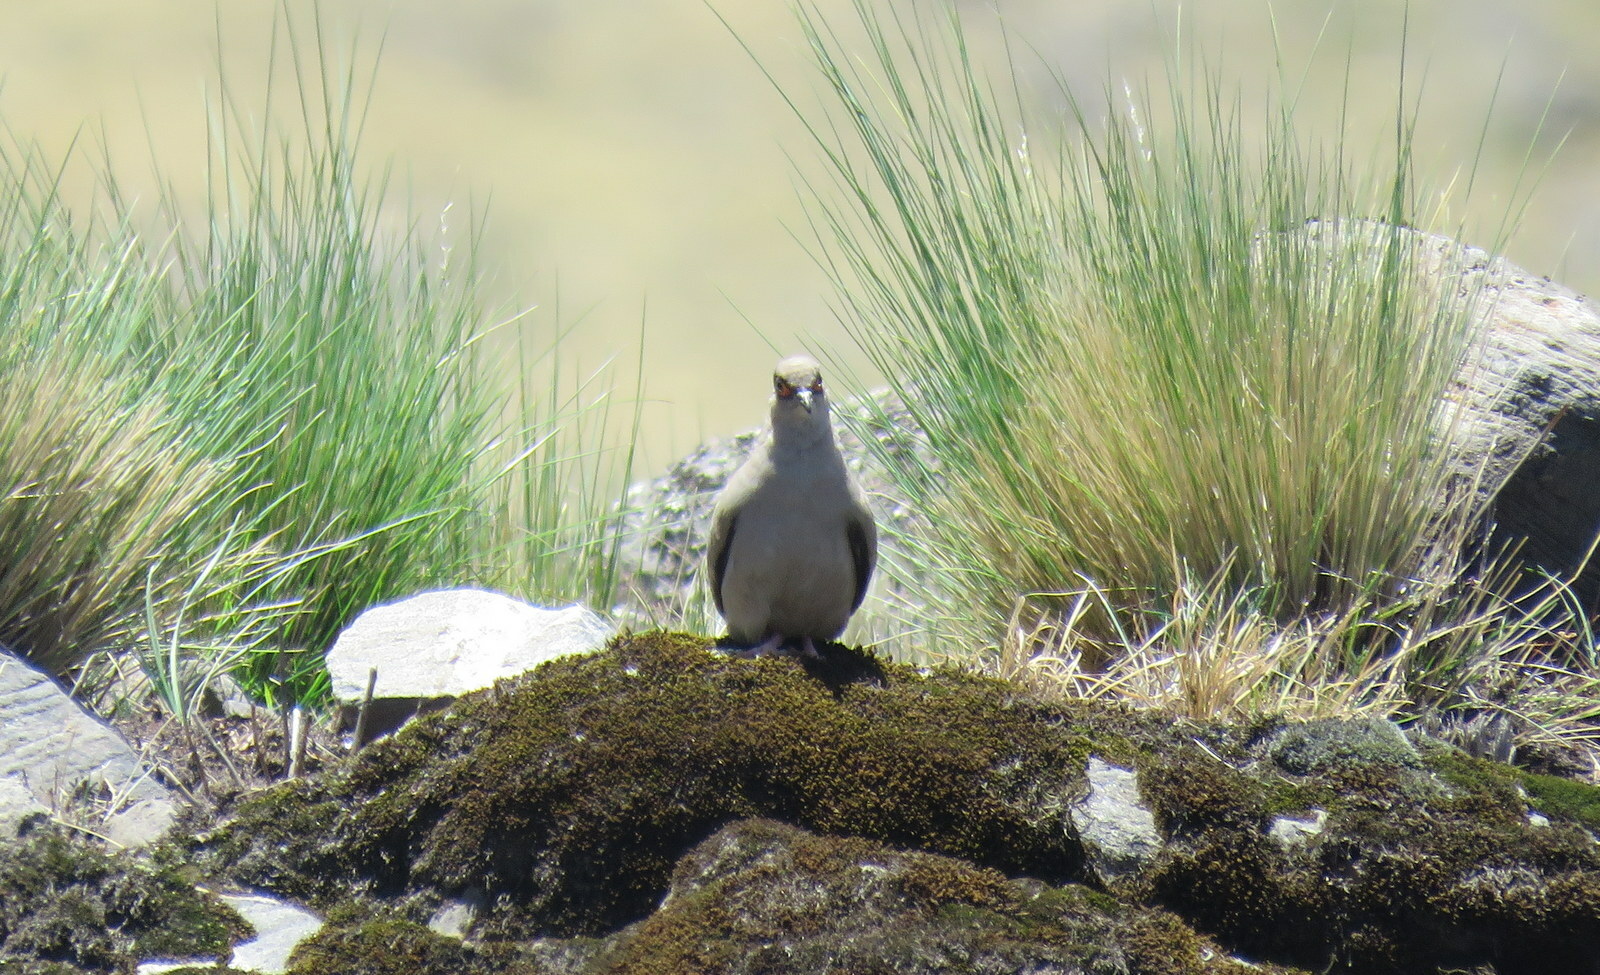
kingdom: Animalia
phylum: Chordata
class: Aves
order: Columbiformes
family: Columbidae
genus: Metriopelia
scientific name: Metriopelia morenoi
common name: Moreno's ground dove
